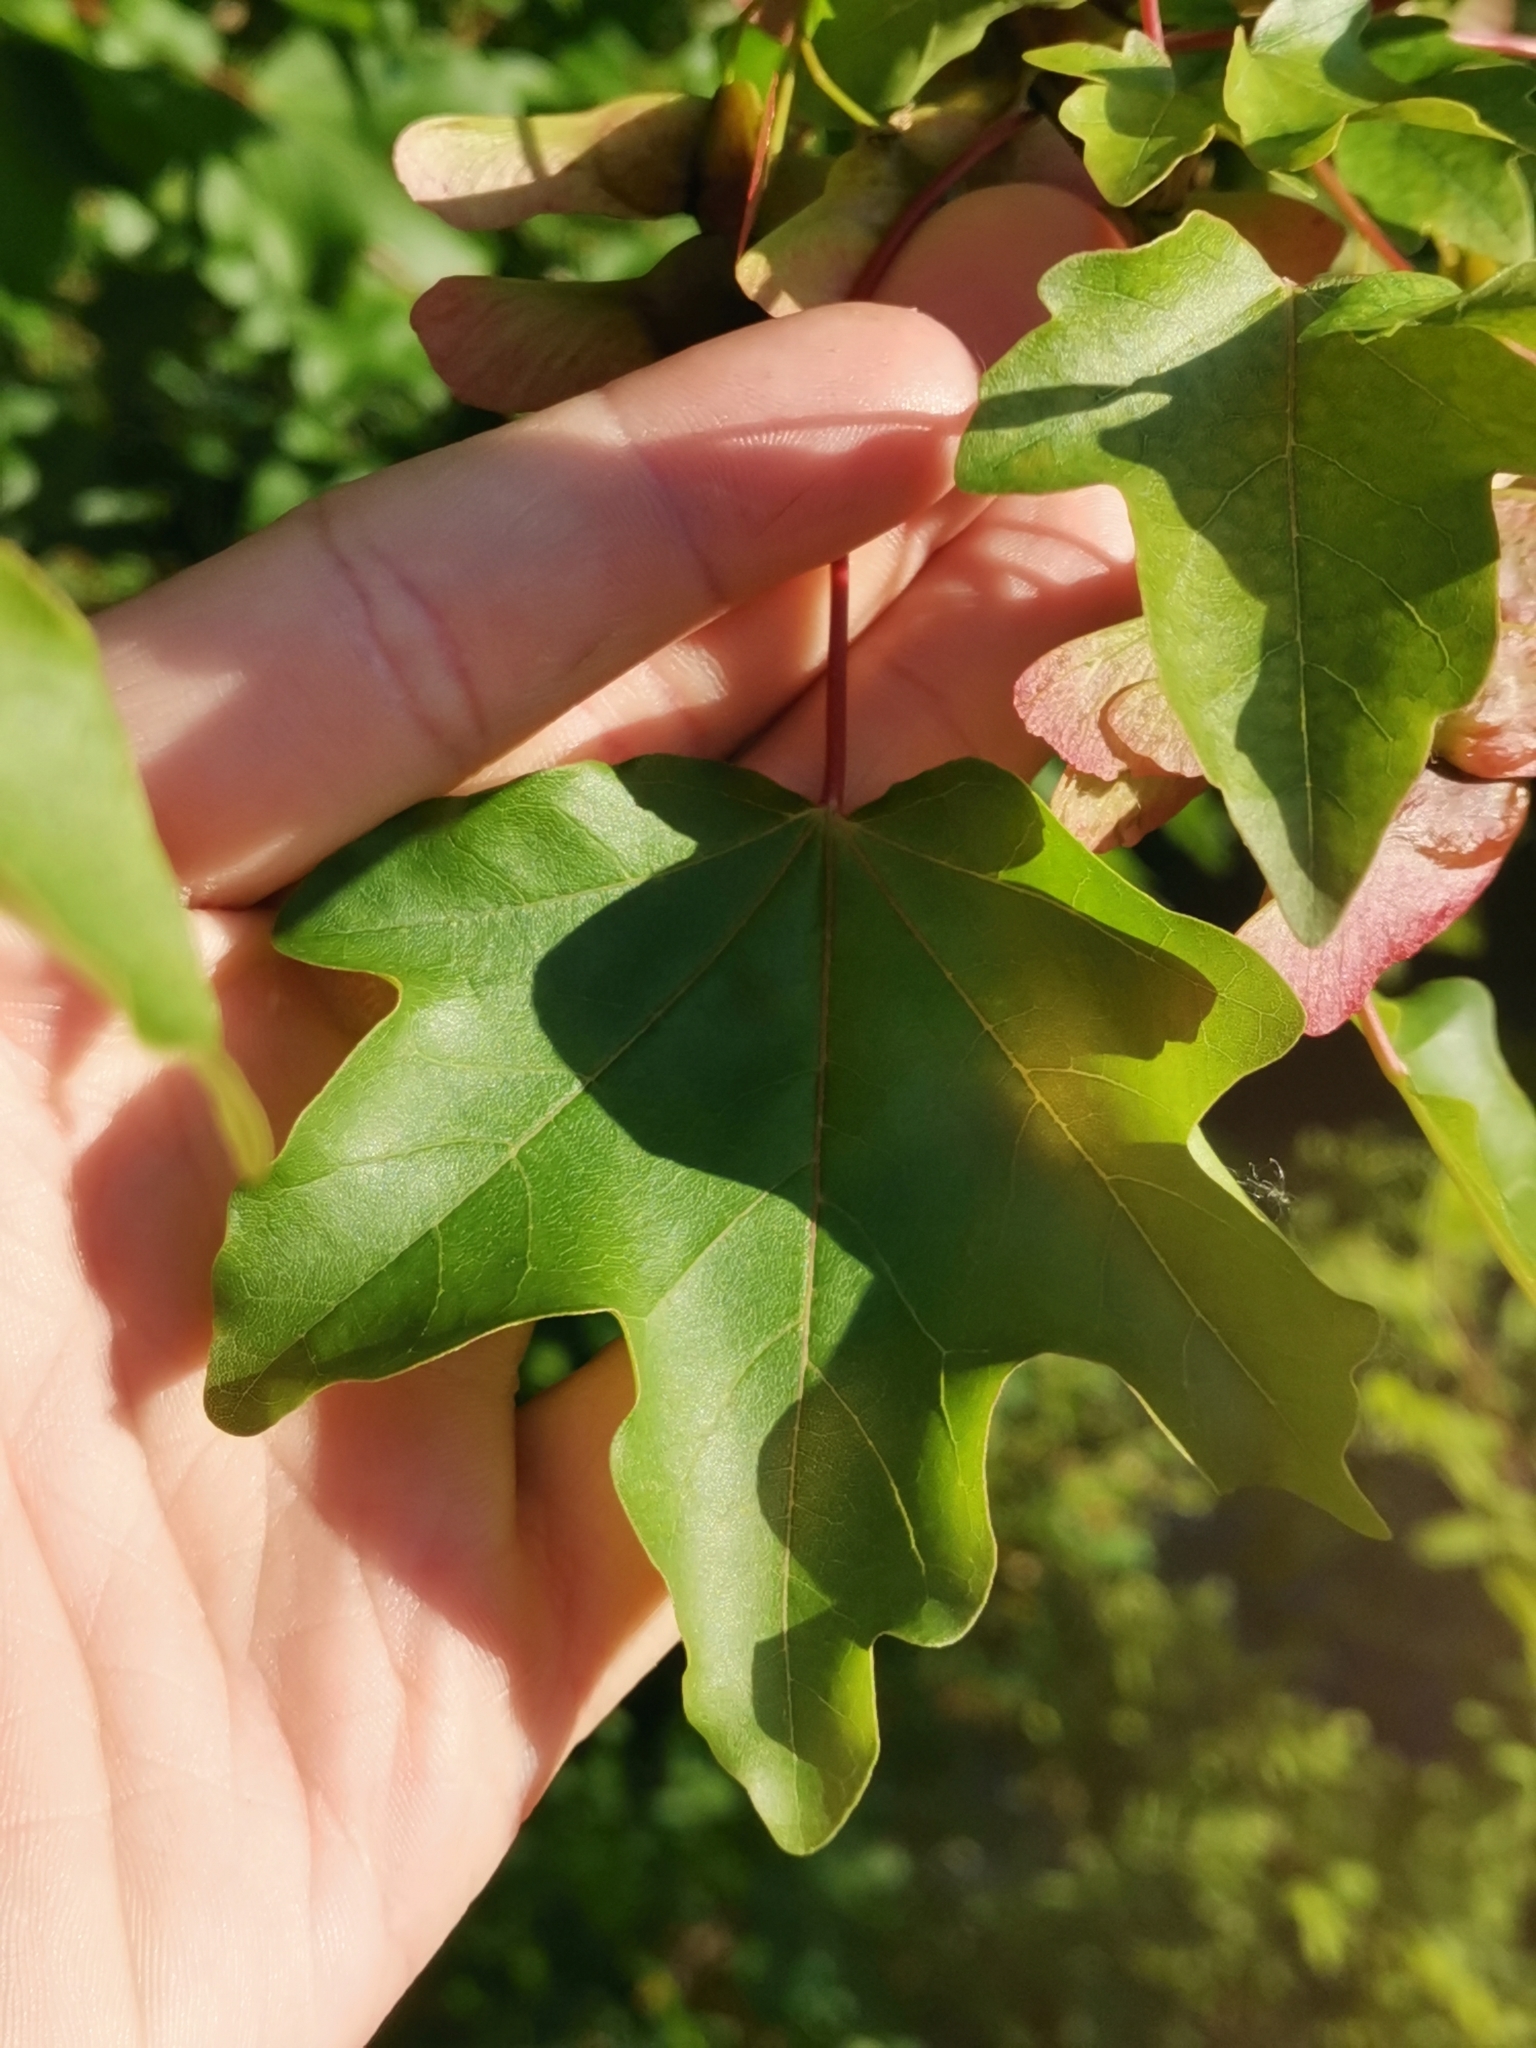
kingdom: Plantae
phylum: Tracheophyta
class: Magnoliopsida
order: Sapindales
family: Sapindaceae
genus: Acer
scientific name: Acer campestre
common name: Field maple
